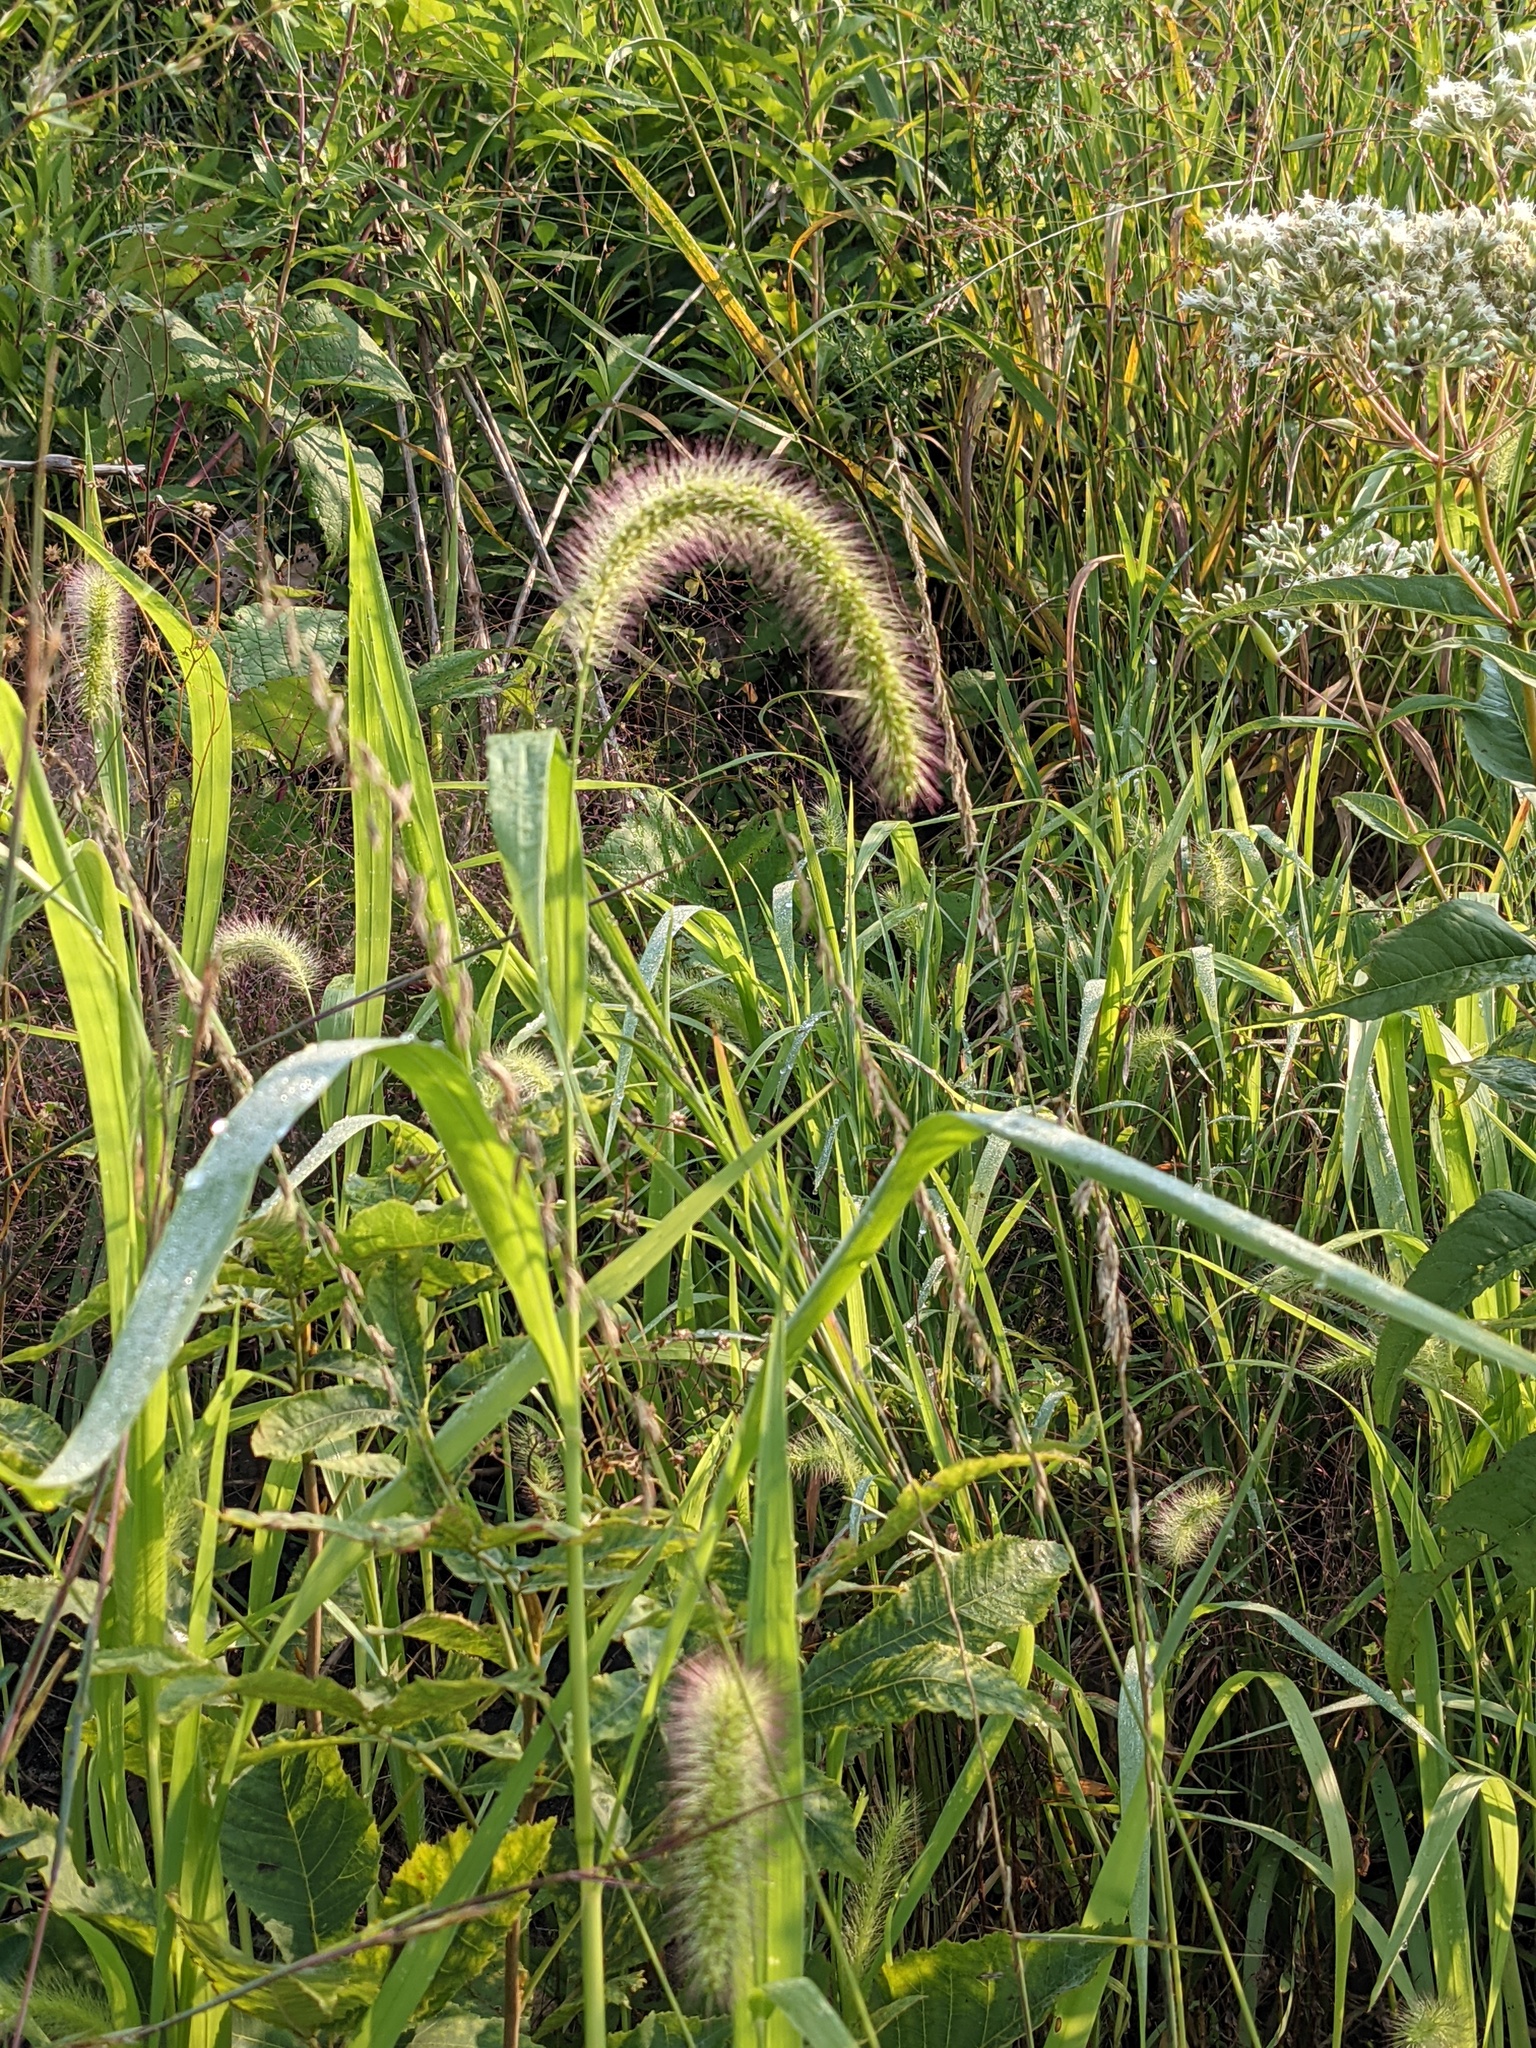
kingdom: Plantae
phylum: Tracheophyta
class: Liliopsida
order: Poales
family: Poaceae
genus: Setaria
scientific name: Setaria faberi
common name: Nodding bristle-grass
